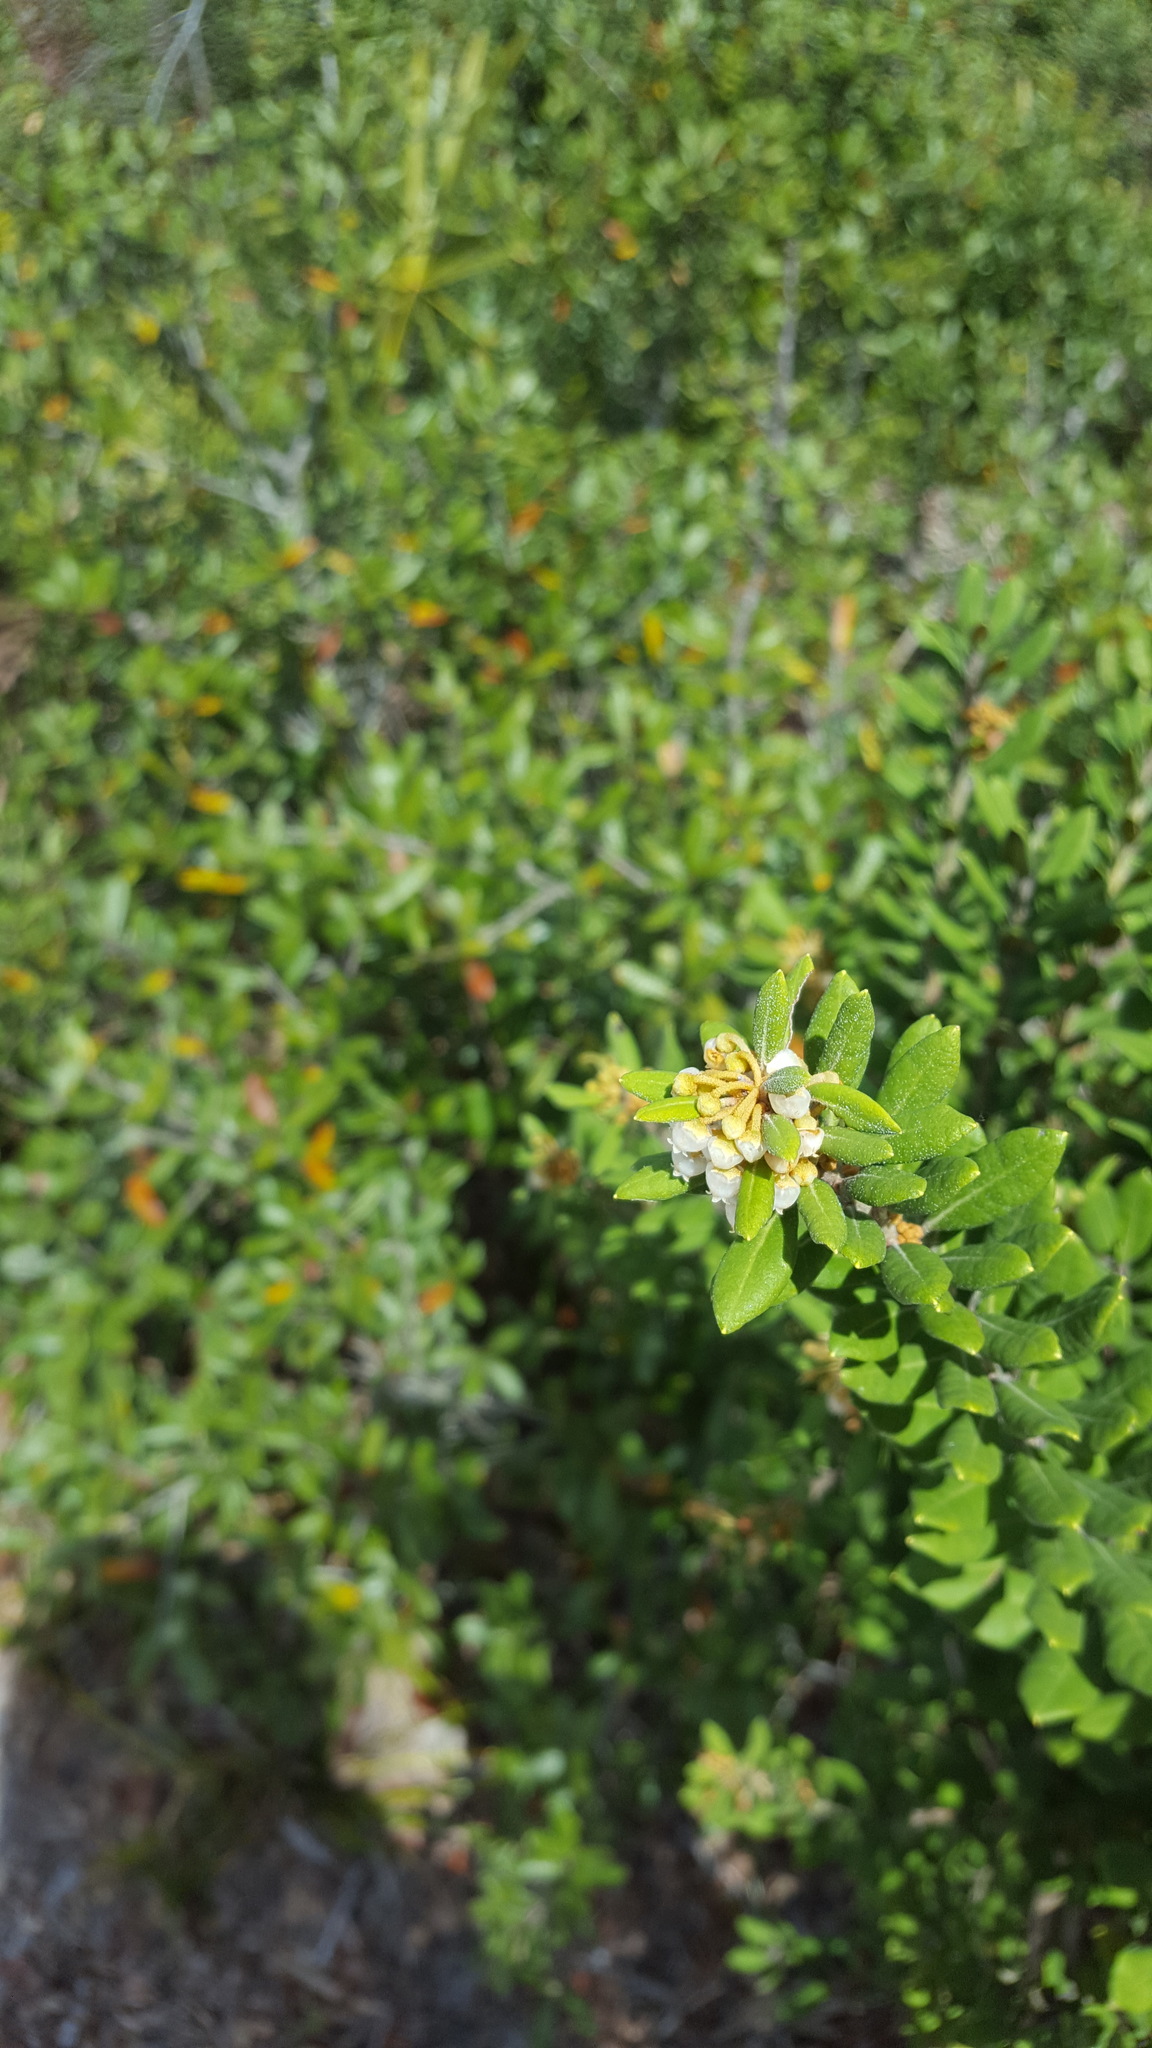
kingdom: Plantae
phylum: Tracheophyta
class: Magnoliopsida
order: Ericales
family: Ericaceae
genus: Lyonia
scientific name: Lyonia ferruginea
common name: Rusty lyonia
